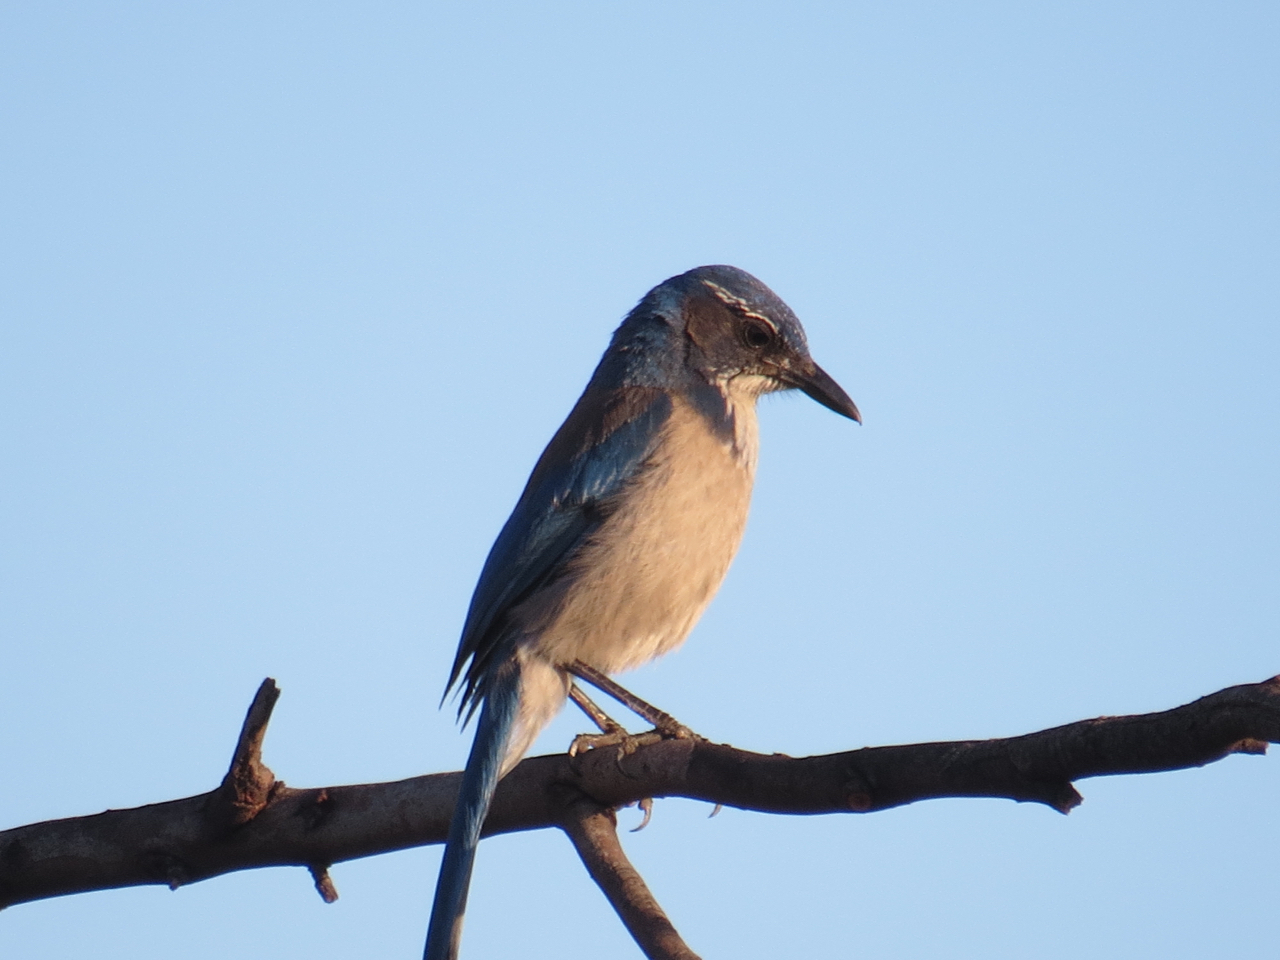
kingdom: Animalia
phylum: Chordata
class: Aves
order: Passeriformes
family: Corvidae
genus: Aphelocoma
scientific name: Aphelocoma californica
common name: California scrub-jay
